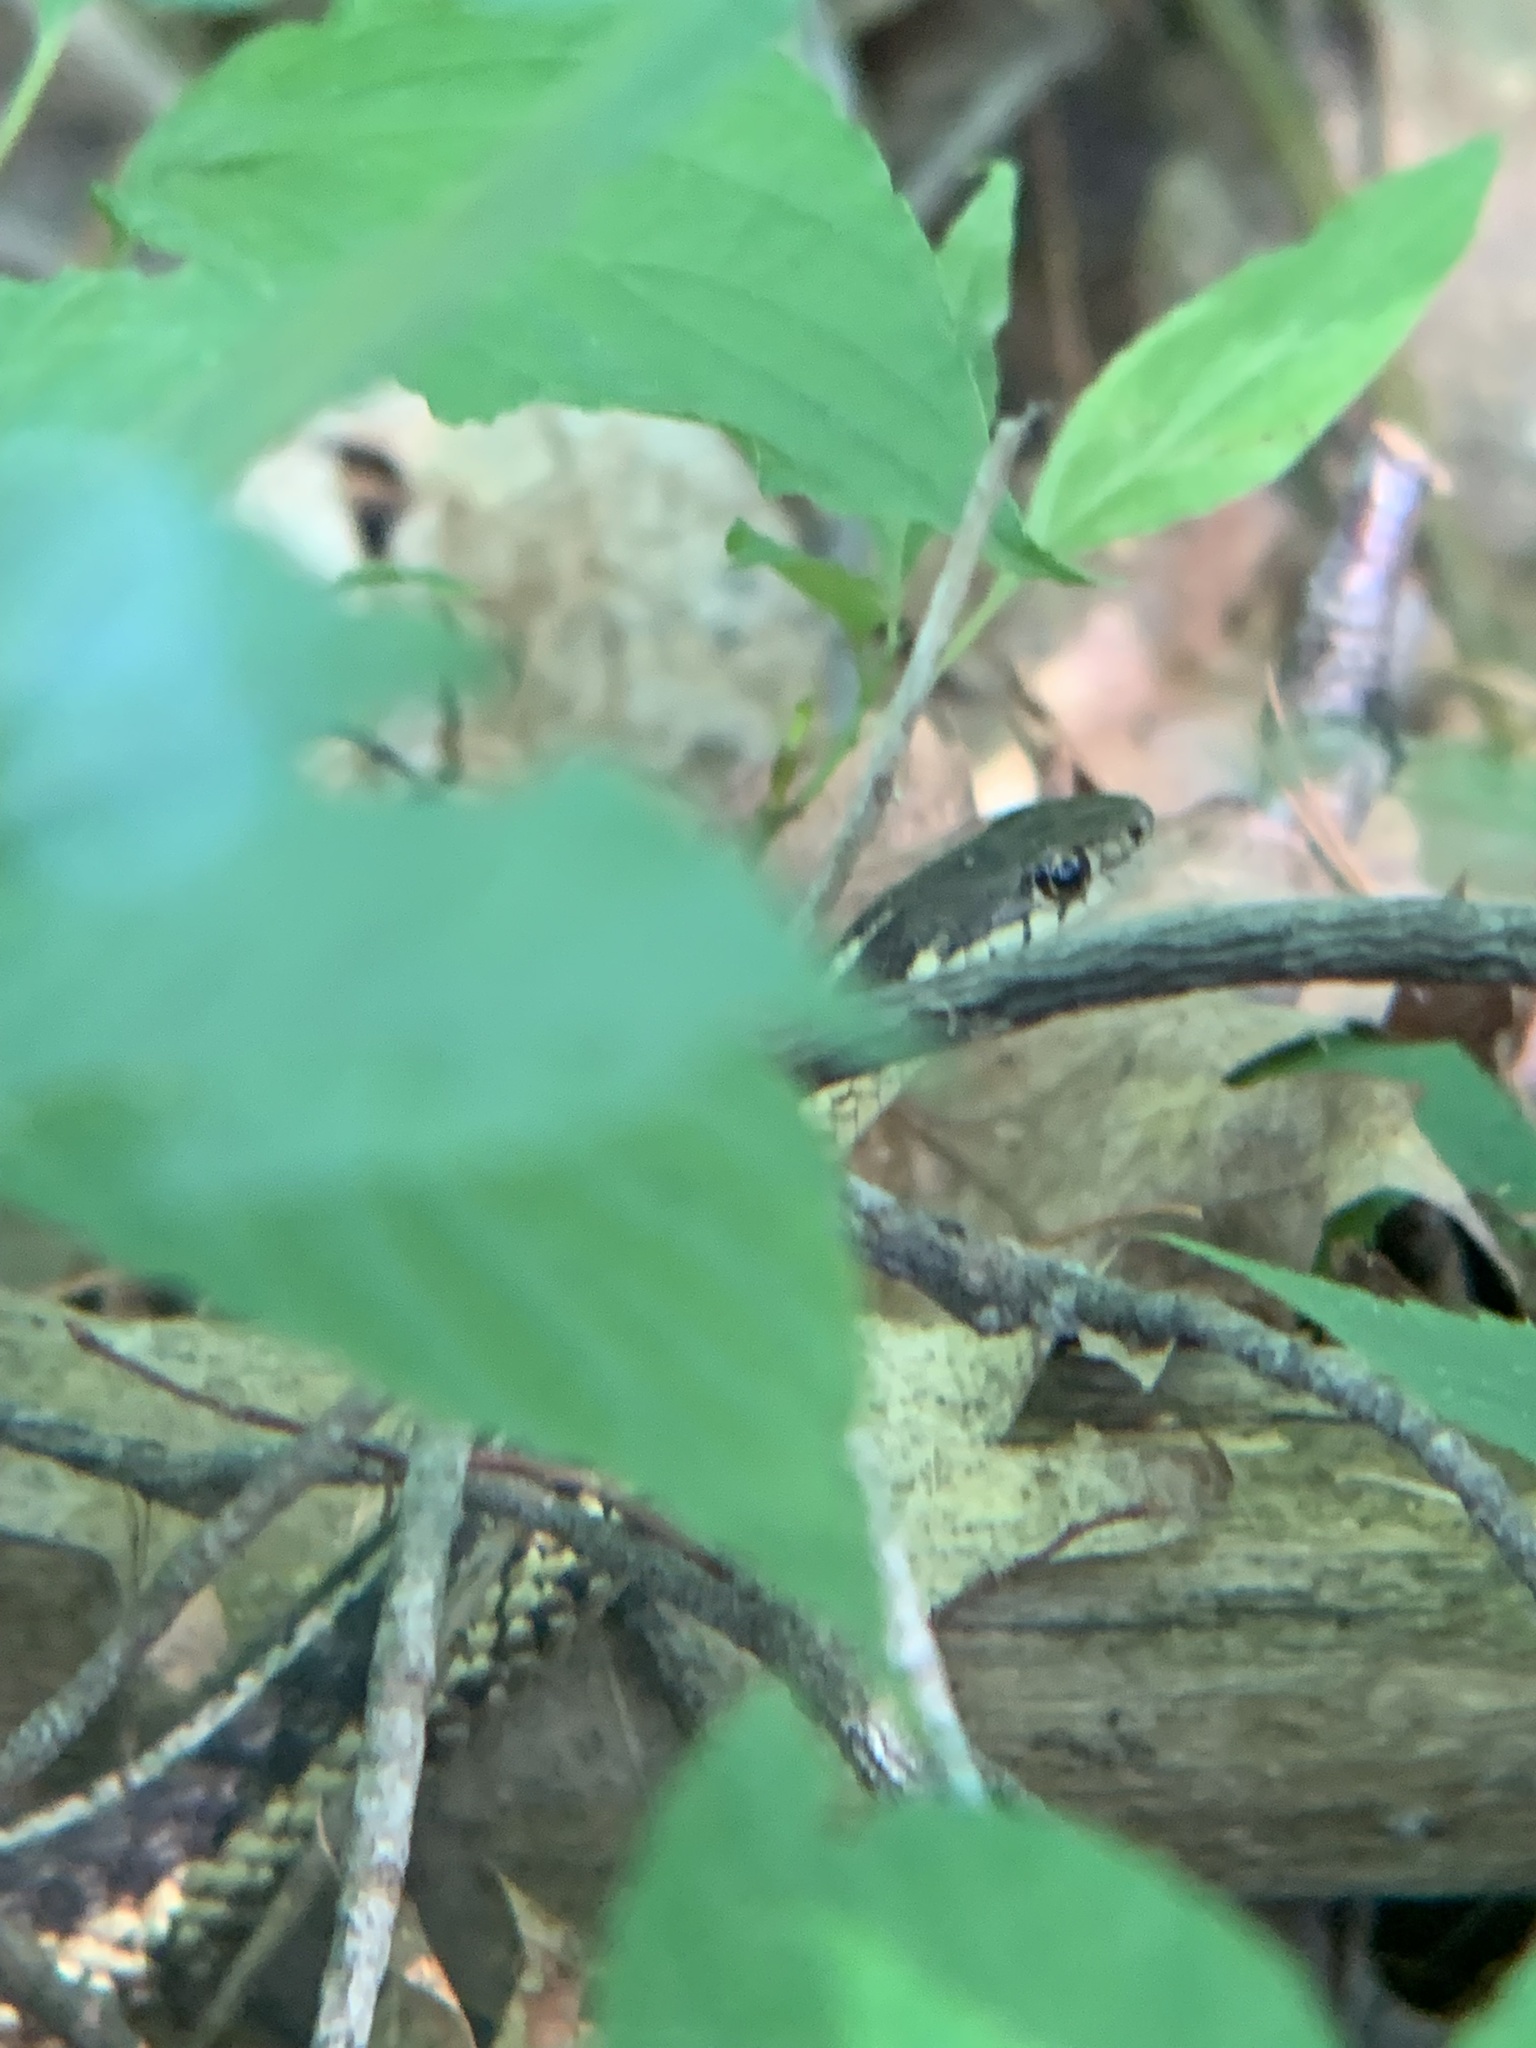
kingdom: Animalia
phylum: Chordata
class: Squamata
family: Colubridae
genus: Thamnophis
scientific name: Thamnophis sirtalis
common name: Common garter snake
